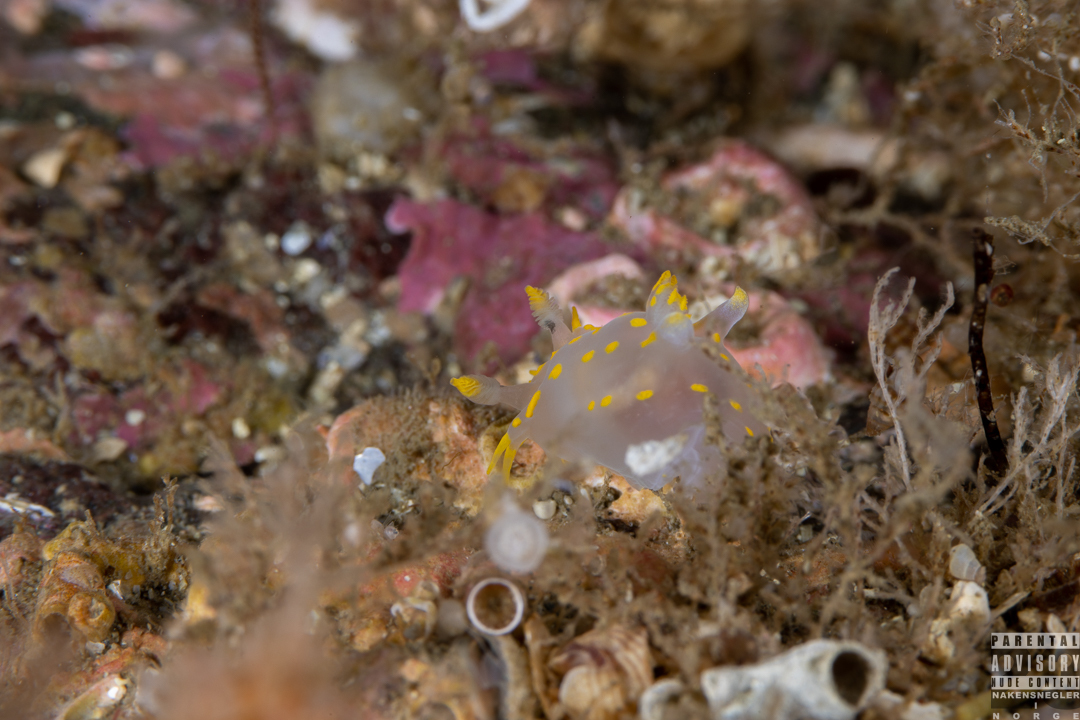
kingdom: Animalia
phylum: Mollusca
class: Gastropoda
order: Nudibranchia
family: Polyceridae
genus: Polycera
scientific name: Polycera quadrilineata
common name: Four-striped polycera
